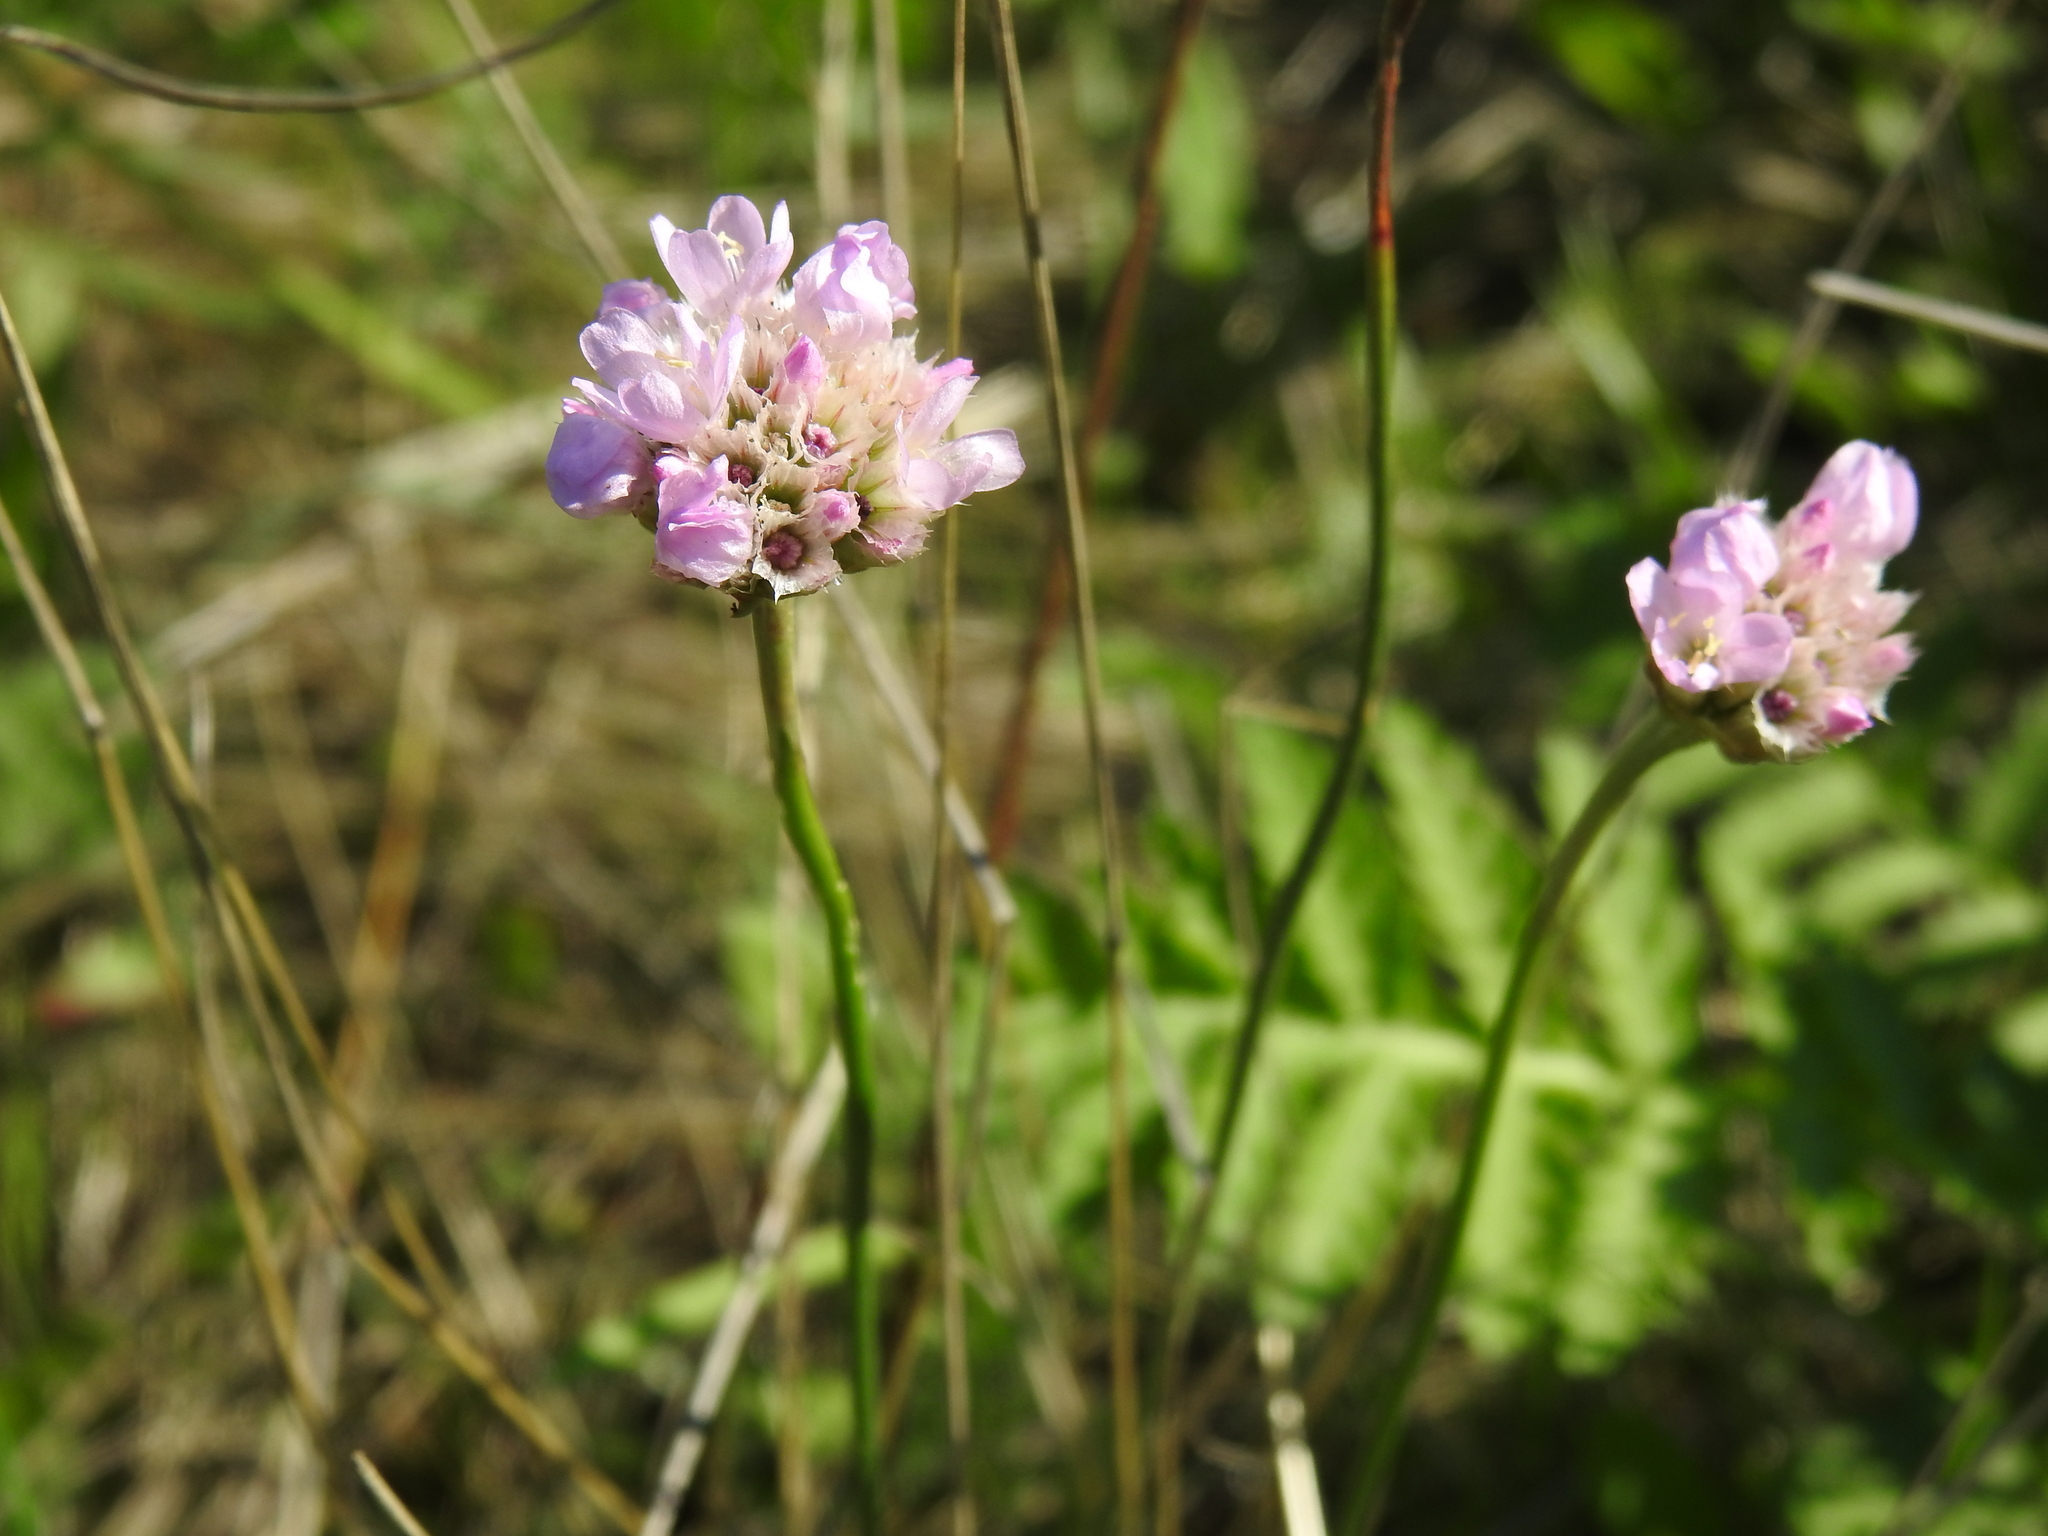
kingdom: Plantae
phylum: Tracheophyta
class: Magnoliopsida
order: Caryophyllales
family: Plumbaginaceae
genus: Armeria
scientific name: Armeria maritima
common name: Thrift
